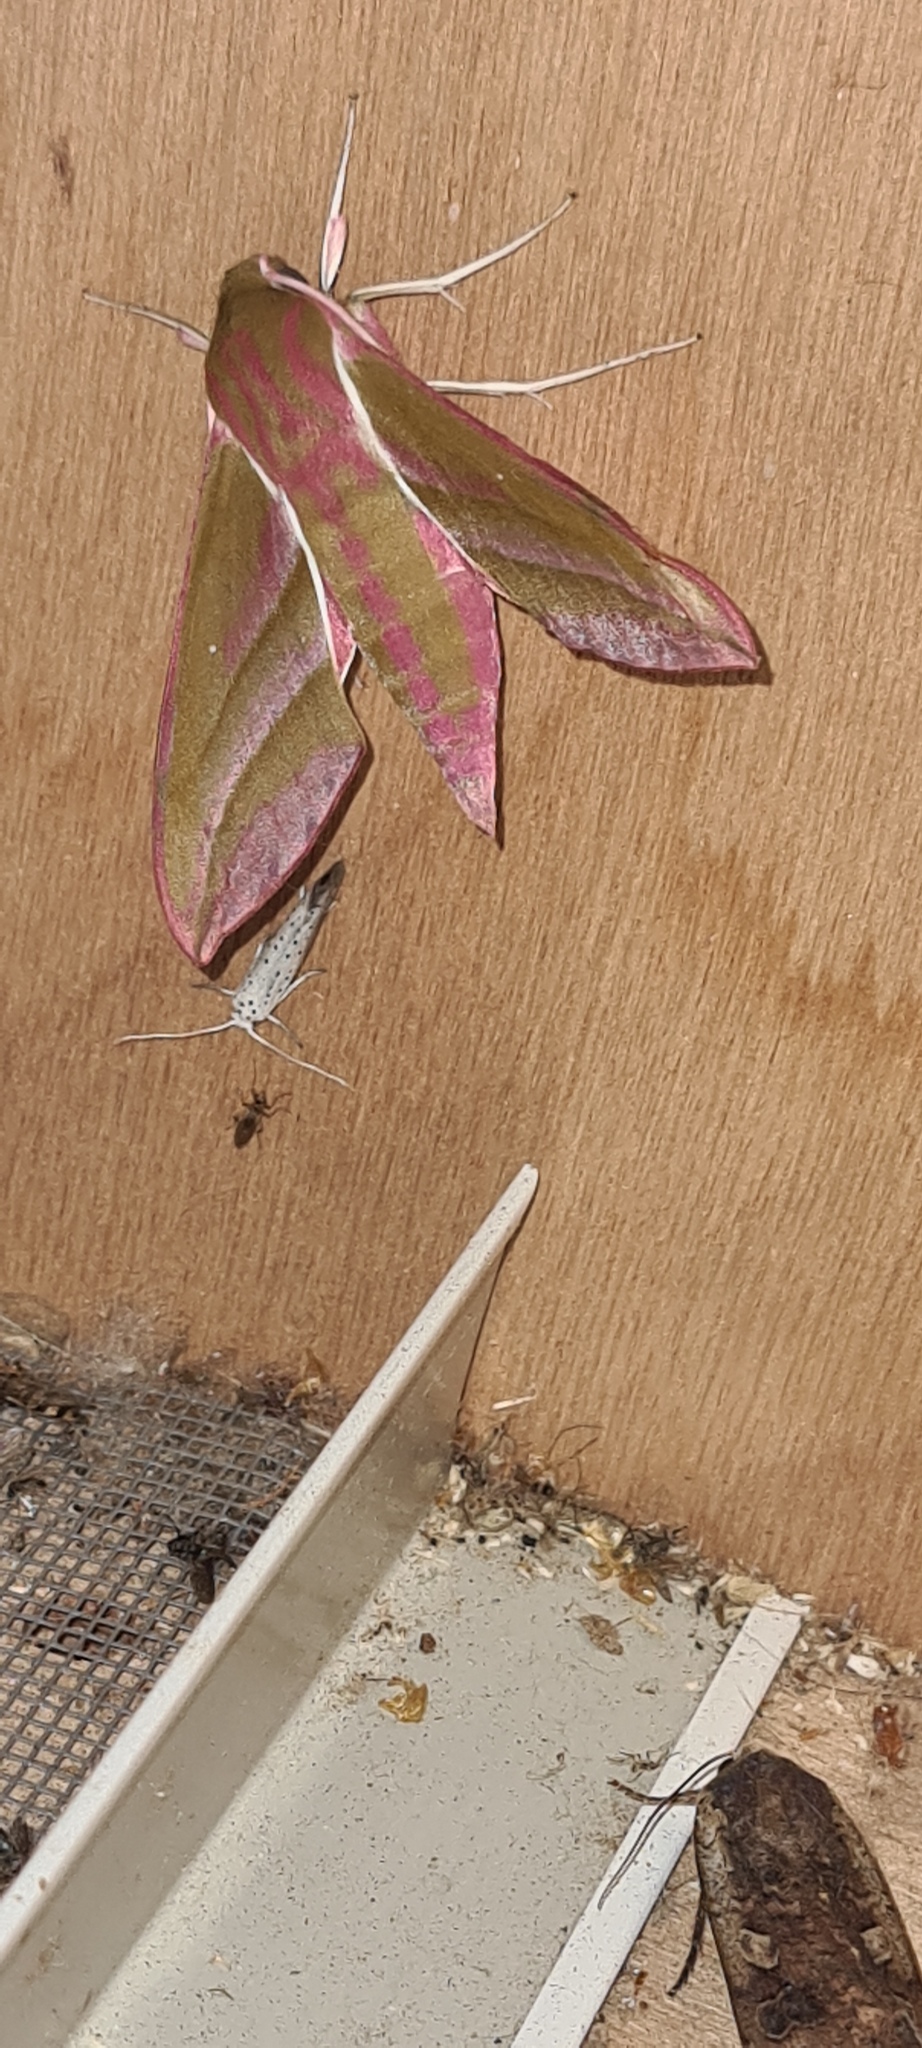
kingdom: Animalia
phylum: Arthropoda
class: Insecta
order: Lepidoptera
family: Sphingidae
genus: Deilephila
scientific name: Deilephila elpenor
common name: Elephant hawk-moth
